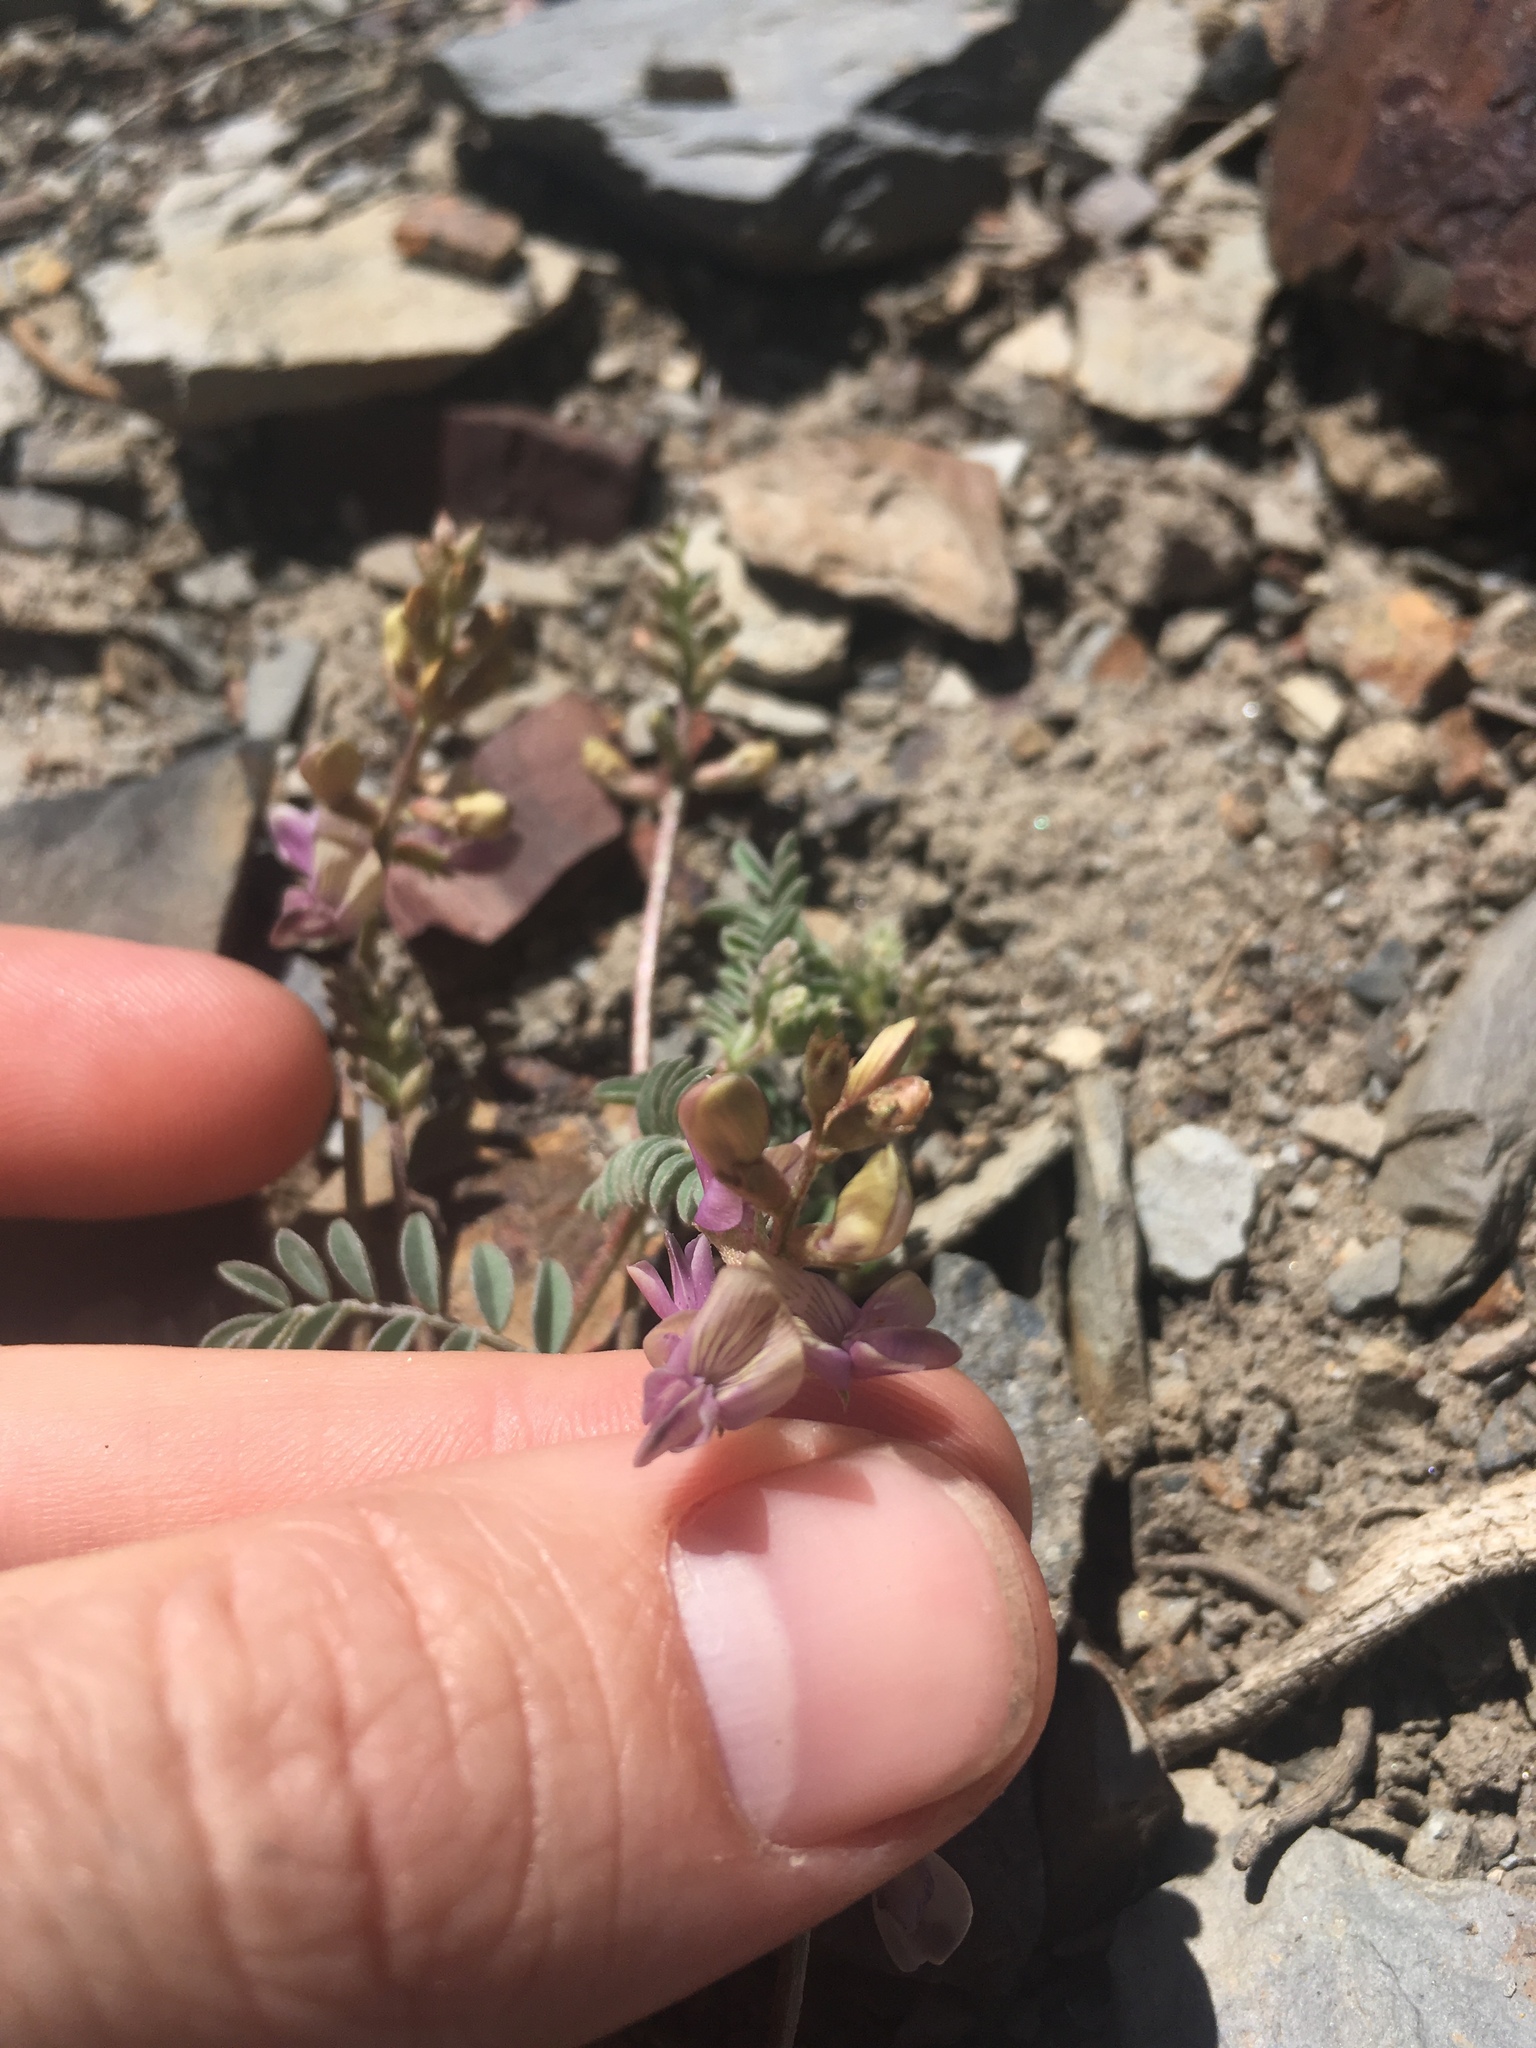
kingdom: Plantae
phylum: Tracheophyta
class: Magnoliopsida
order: Fabales
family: Fabaceae
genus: Astragalus
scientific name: Astragalus inyoensis
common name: Inyo locoweed
